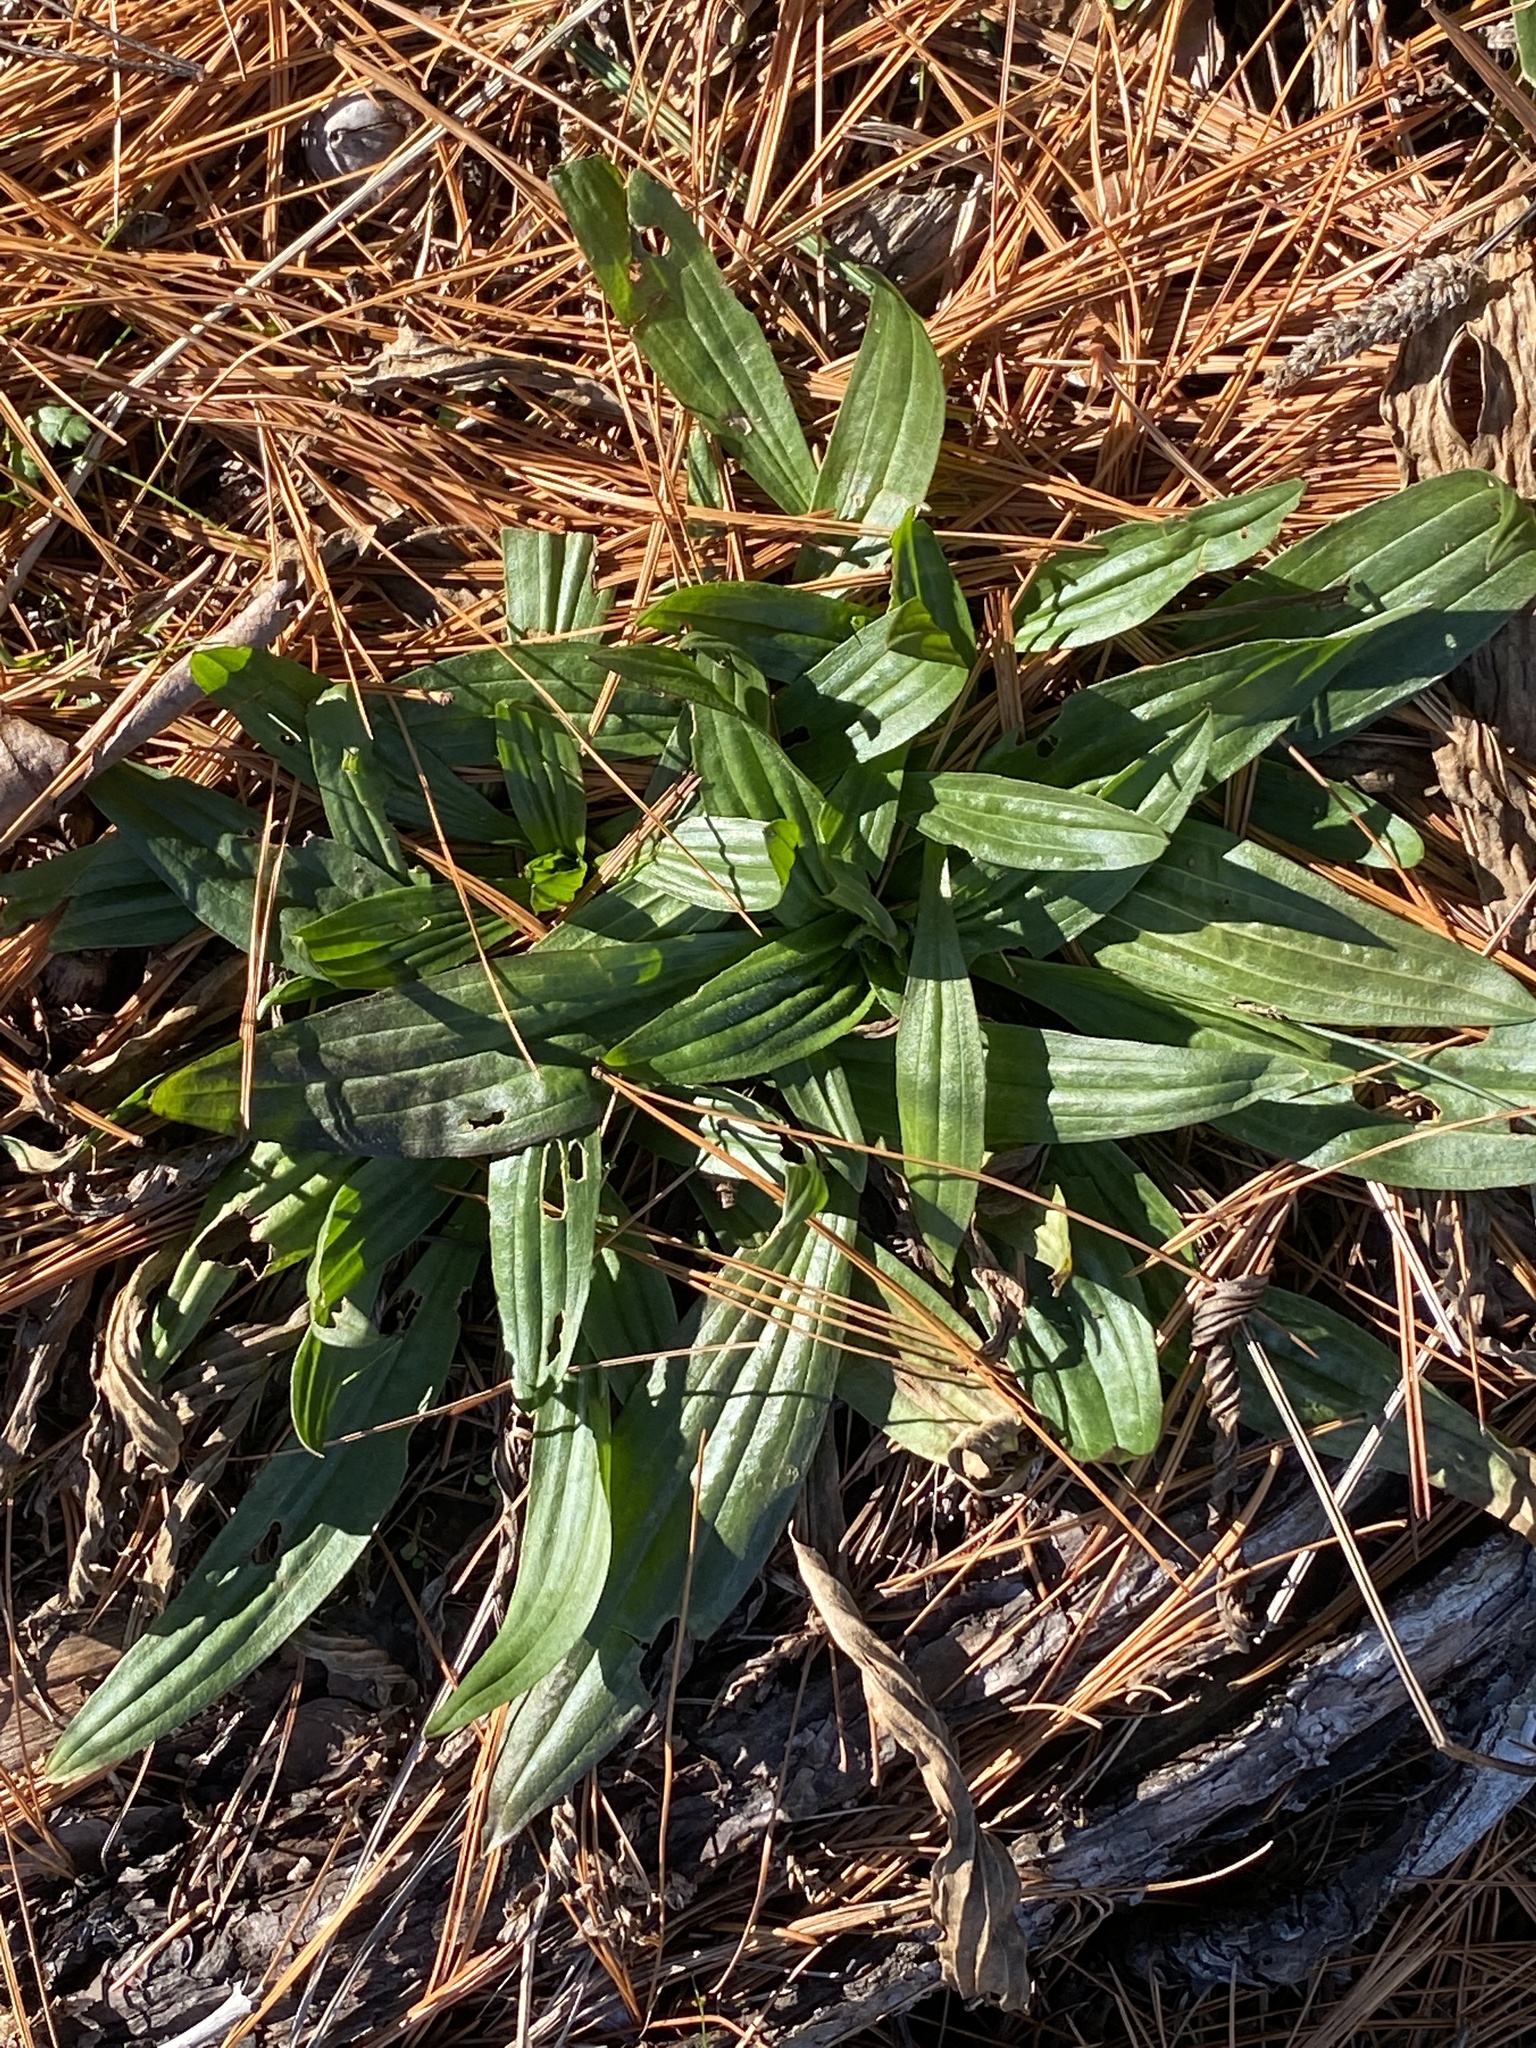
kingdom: Plantae
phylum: Tracheophyta
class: Magnoliopsida
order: Lamiales
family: Plantaginaceae
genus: Plantago
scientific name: Plantago lanceolata
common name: Ribwort plantain
